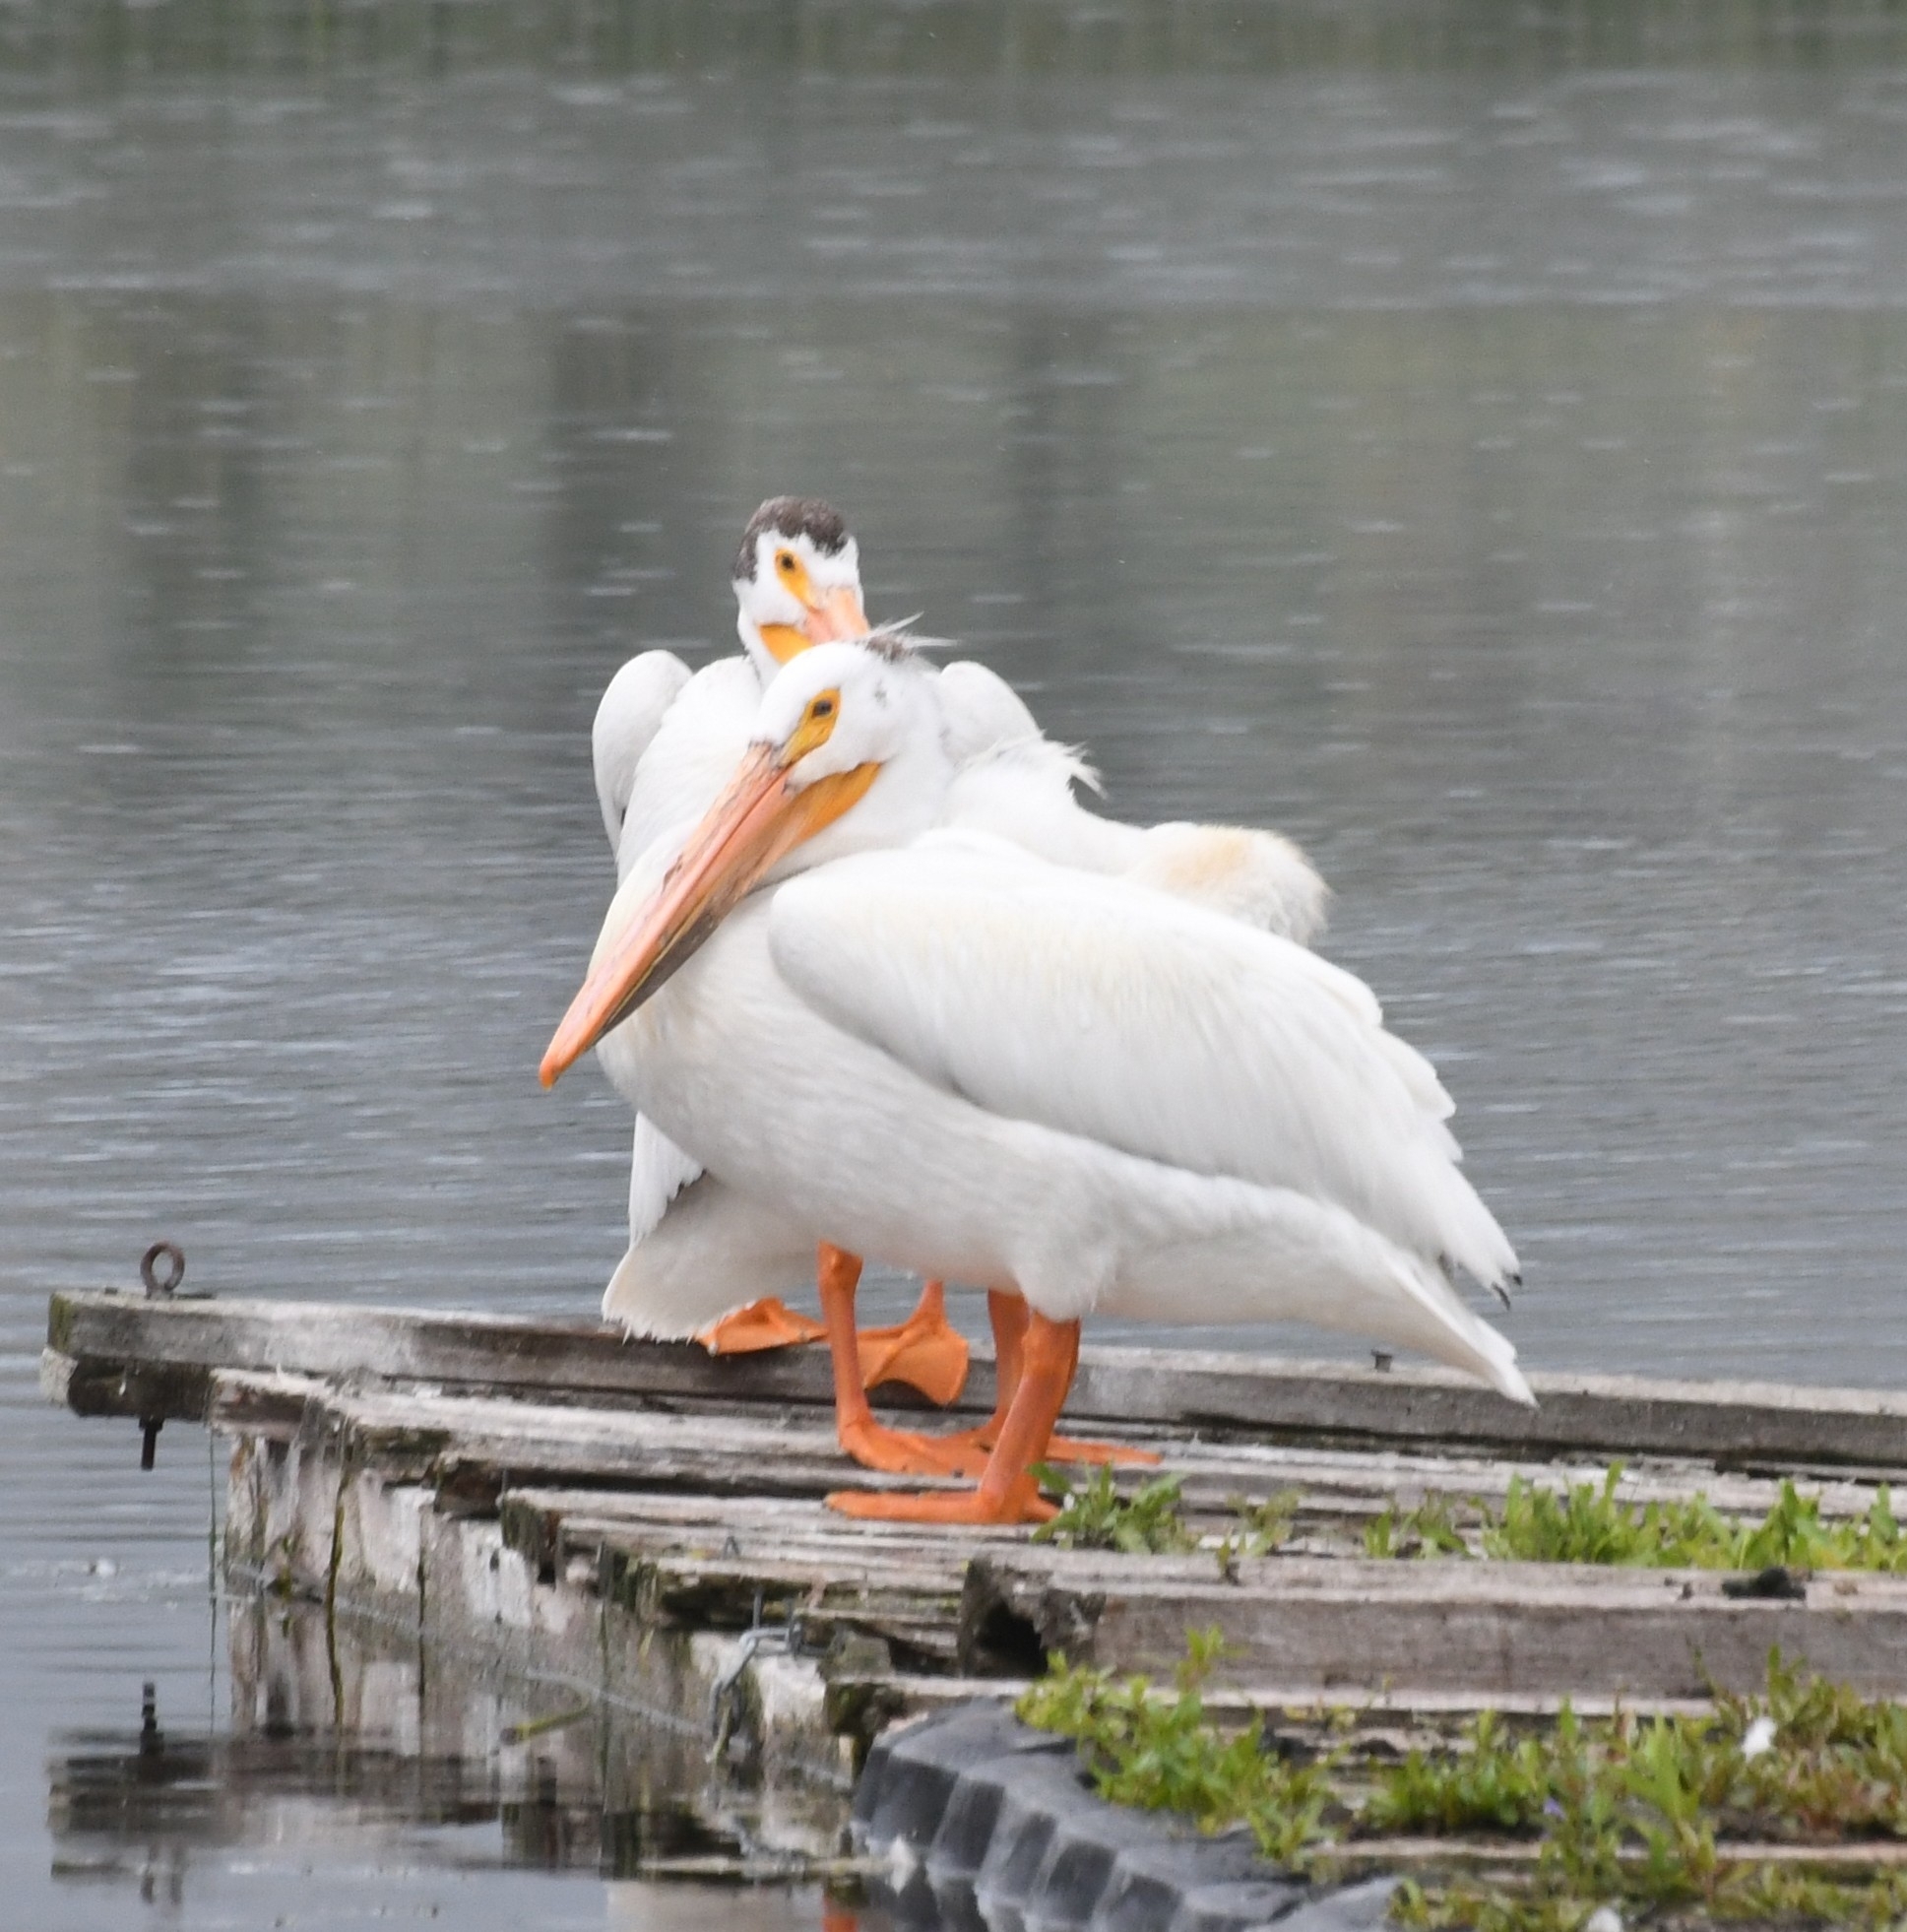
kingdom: Animalia
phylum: Chordata
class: Aves
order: Pelecaniformes
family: Pelecanidae
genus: Pelecanus
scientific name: Pelecanus erythrorhynchos
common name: American white pelican
